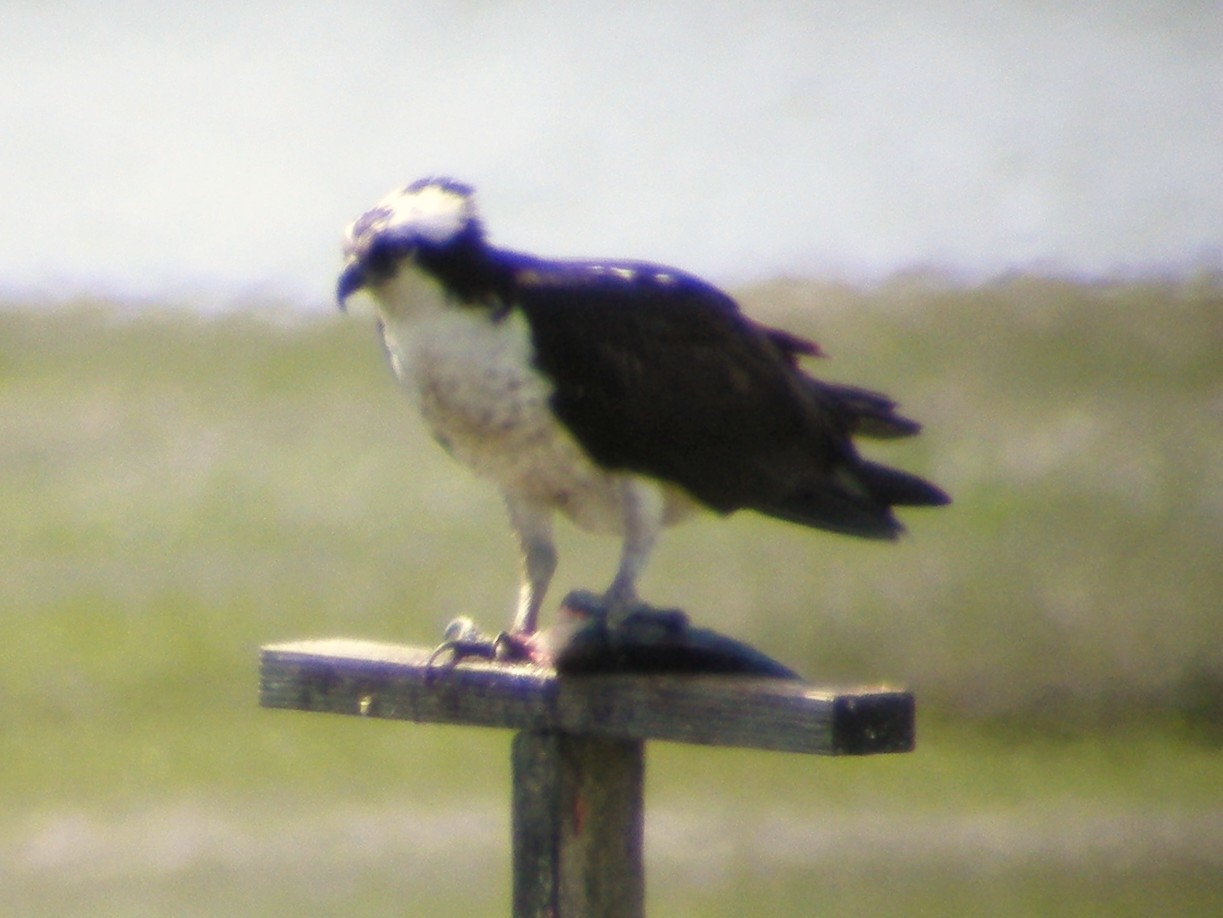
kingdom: Animalia
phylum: Chordata
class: Aves
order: Accipitriformes
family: Pandionidae
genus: Pandion
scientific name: Pandion haliaetus
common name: Osprey
